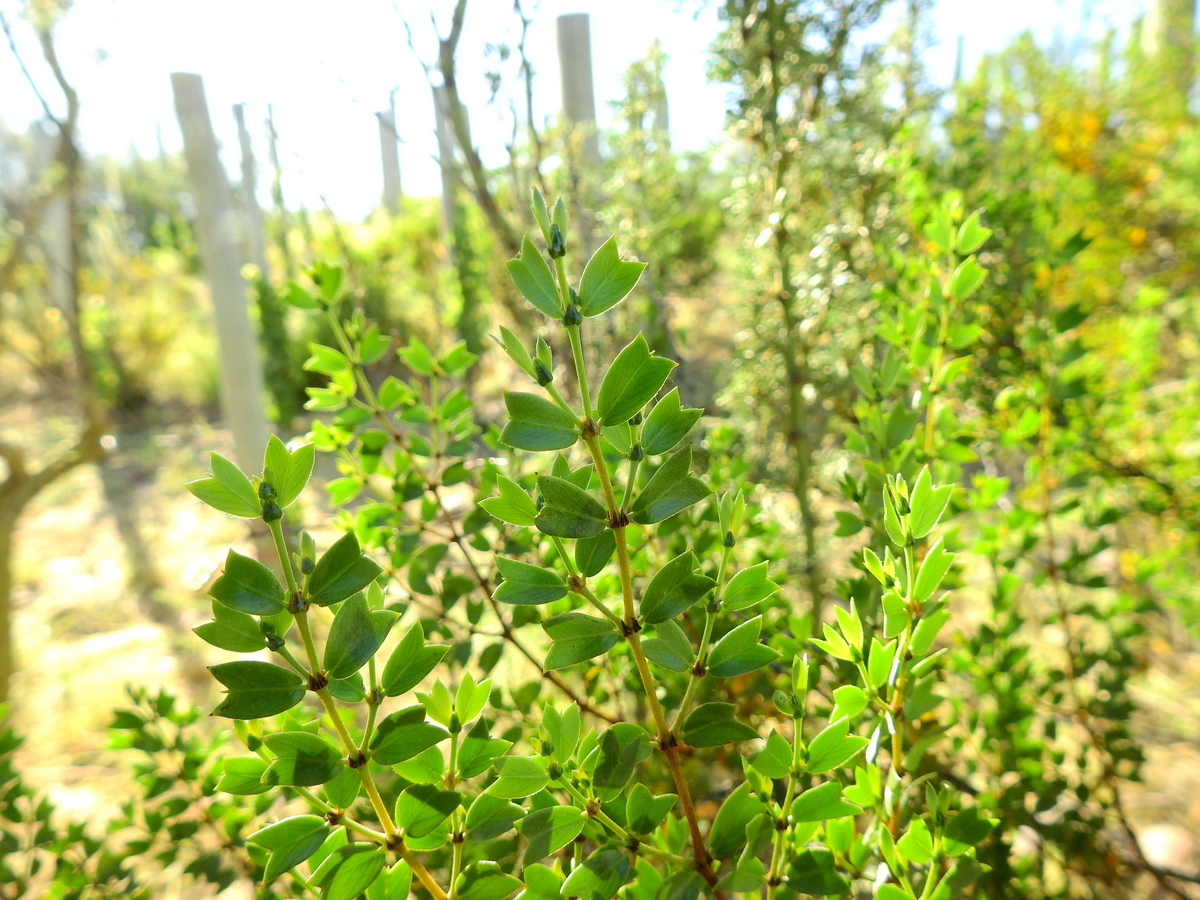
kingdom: Plantae
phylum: Tracheophyta
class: Magnoliopsida
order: Zygophyllales
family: Zygophyllaceae
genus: Larrea
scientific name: Larrea cuneifolia
